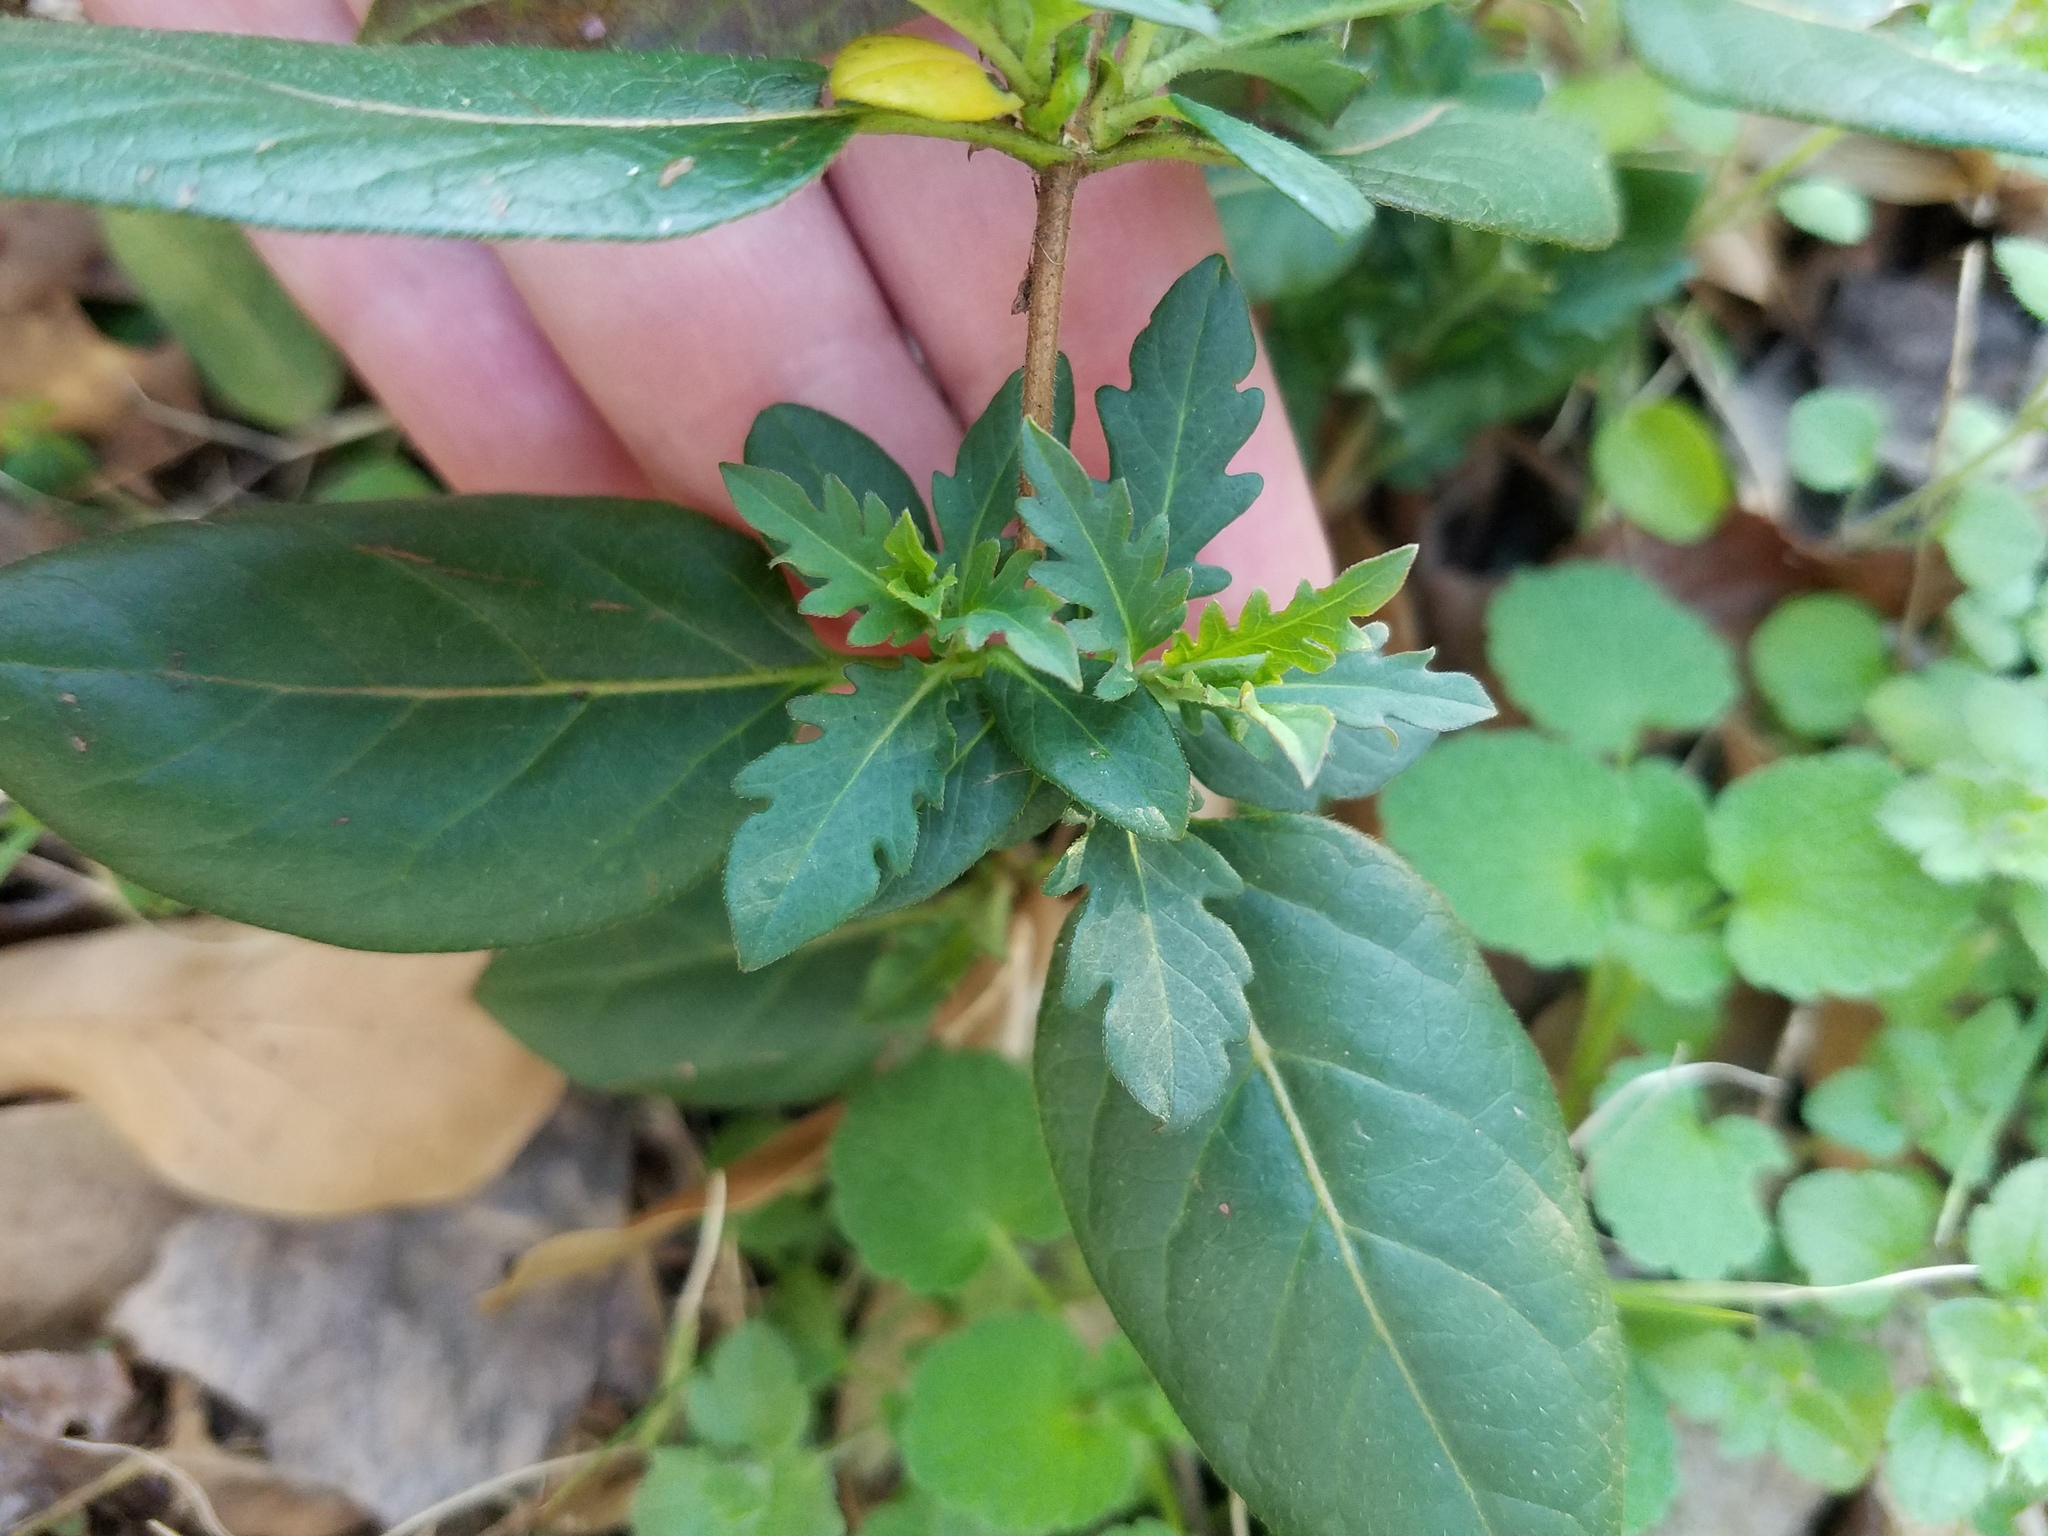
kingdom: Plantae
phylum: Tracheophyta
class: Magnoliopsida
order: Dipsacales
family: Caprifoliaceae
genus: Lonicera
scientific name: Lonicera japonica
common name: Japanese honeysuckle
